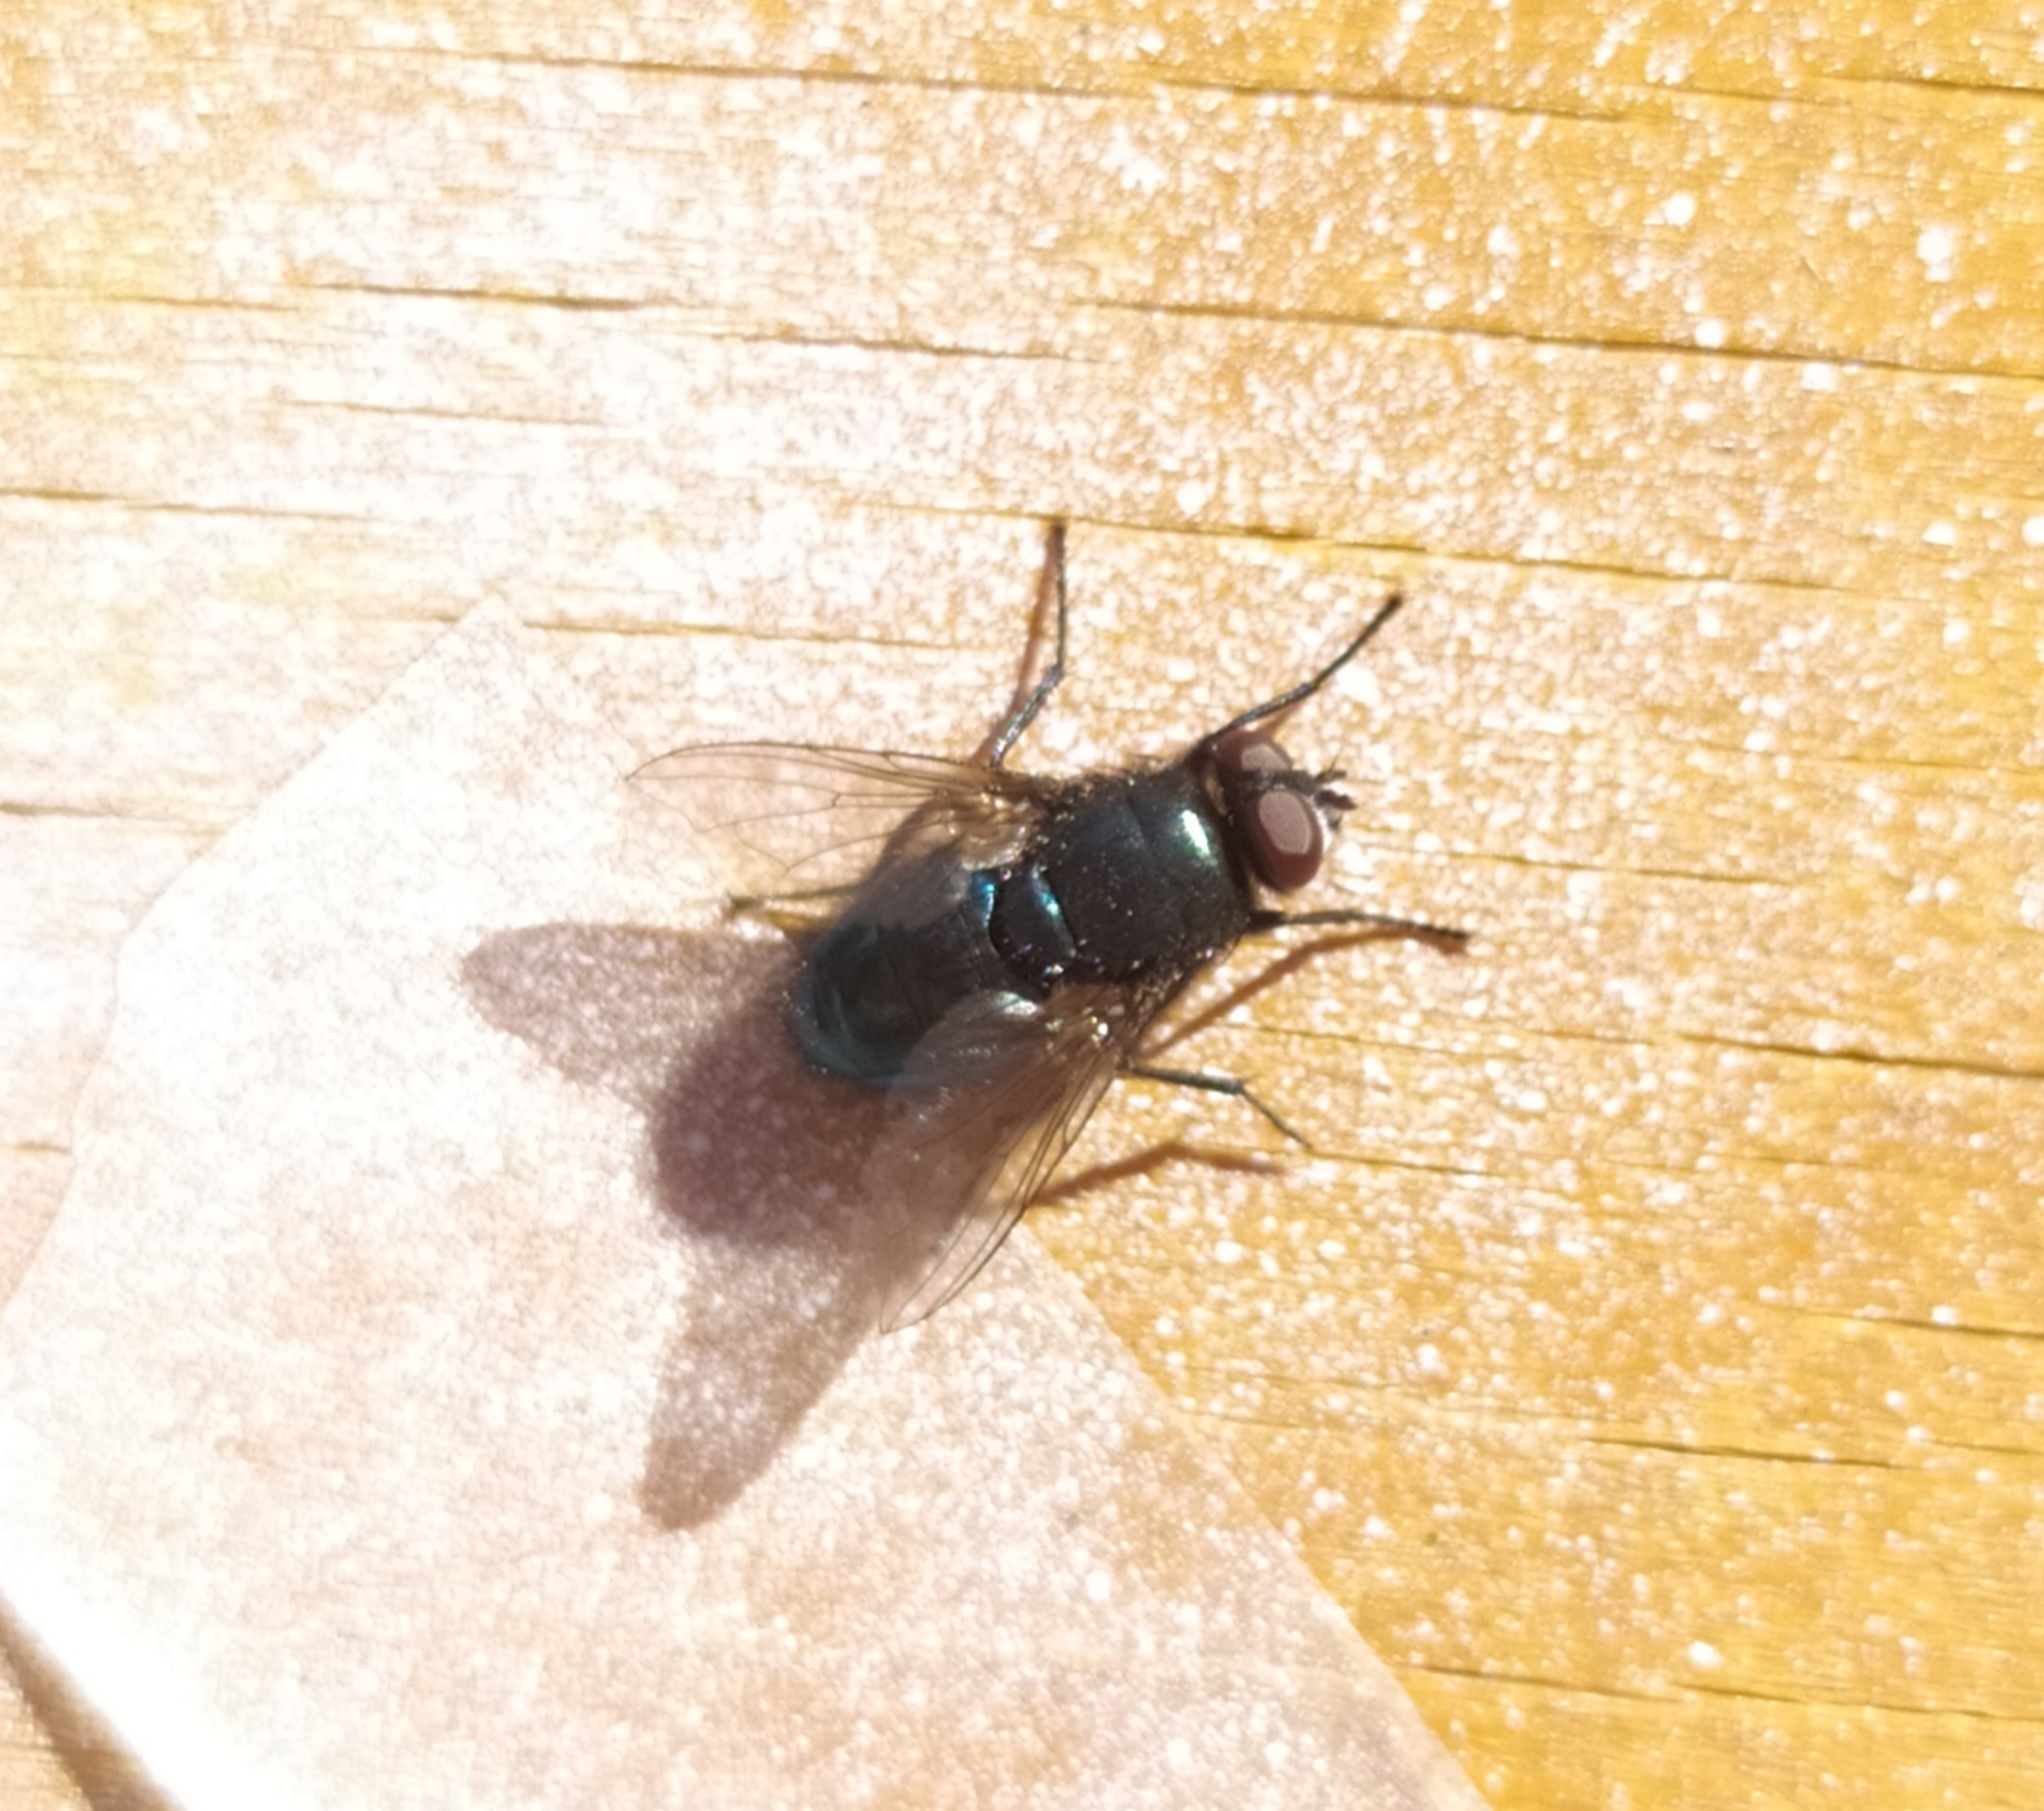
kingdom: Animalia
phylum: Arthropoda
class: Insecta
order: Diptera
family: Calliphoridae
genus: Protophormia
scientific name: Protophormia terraenovae
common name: Blackbottle
